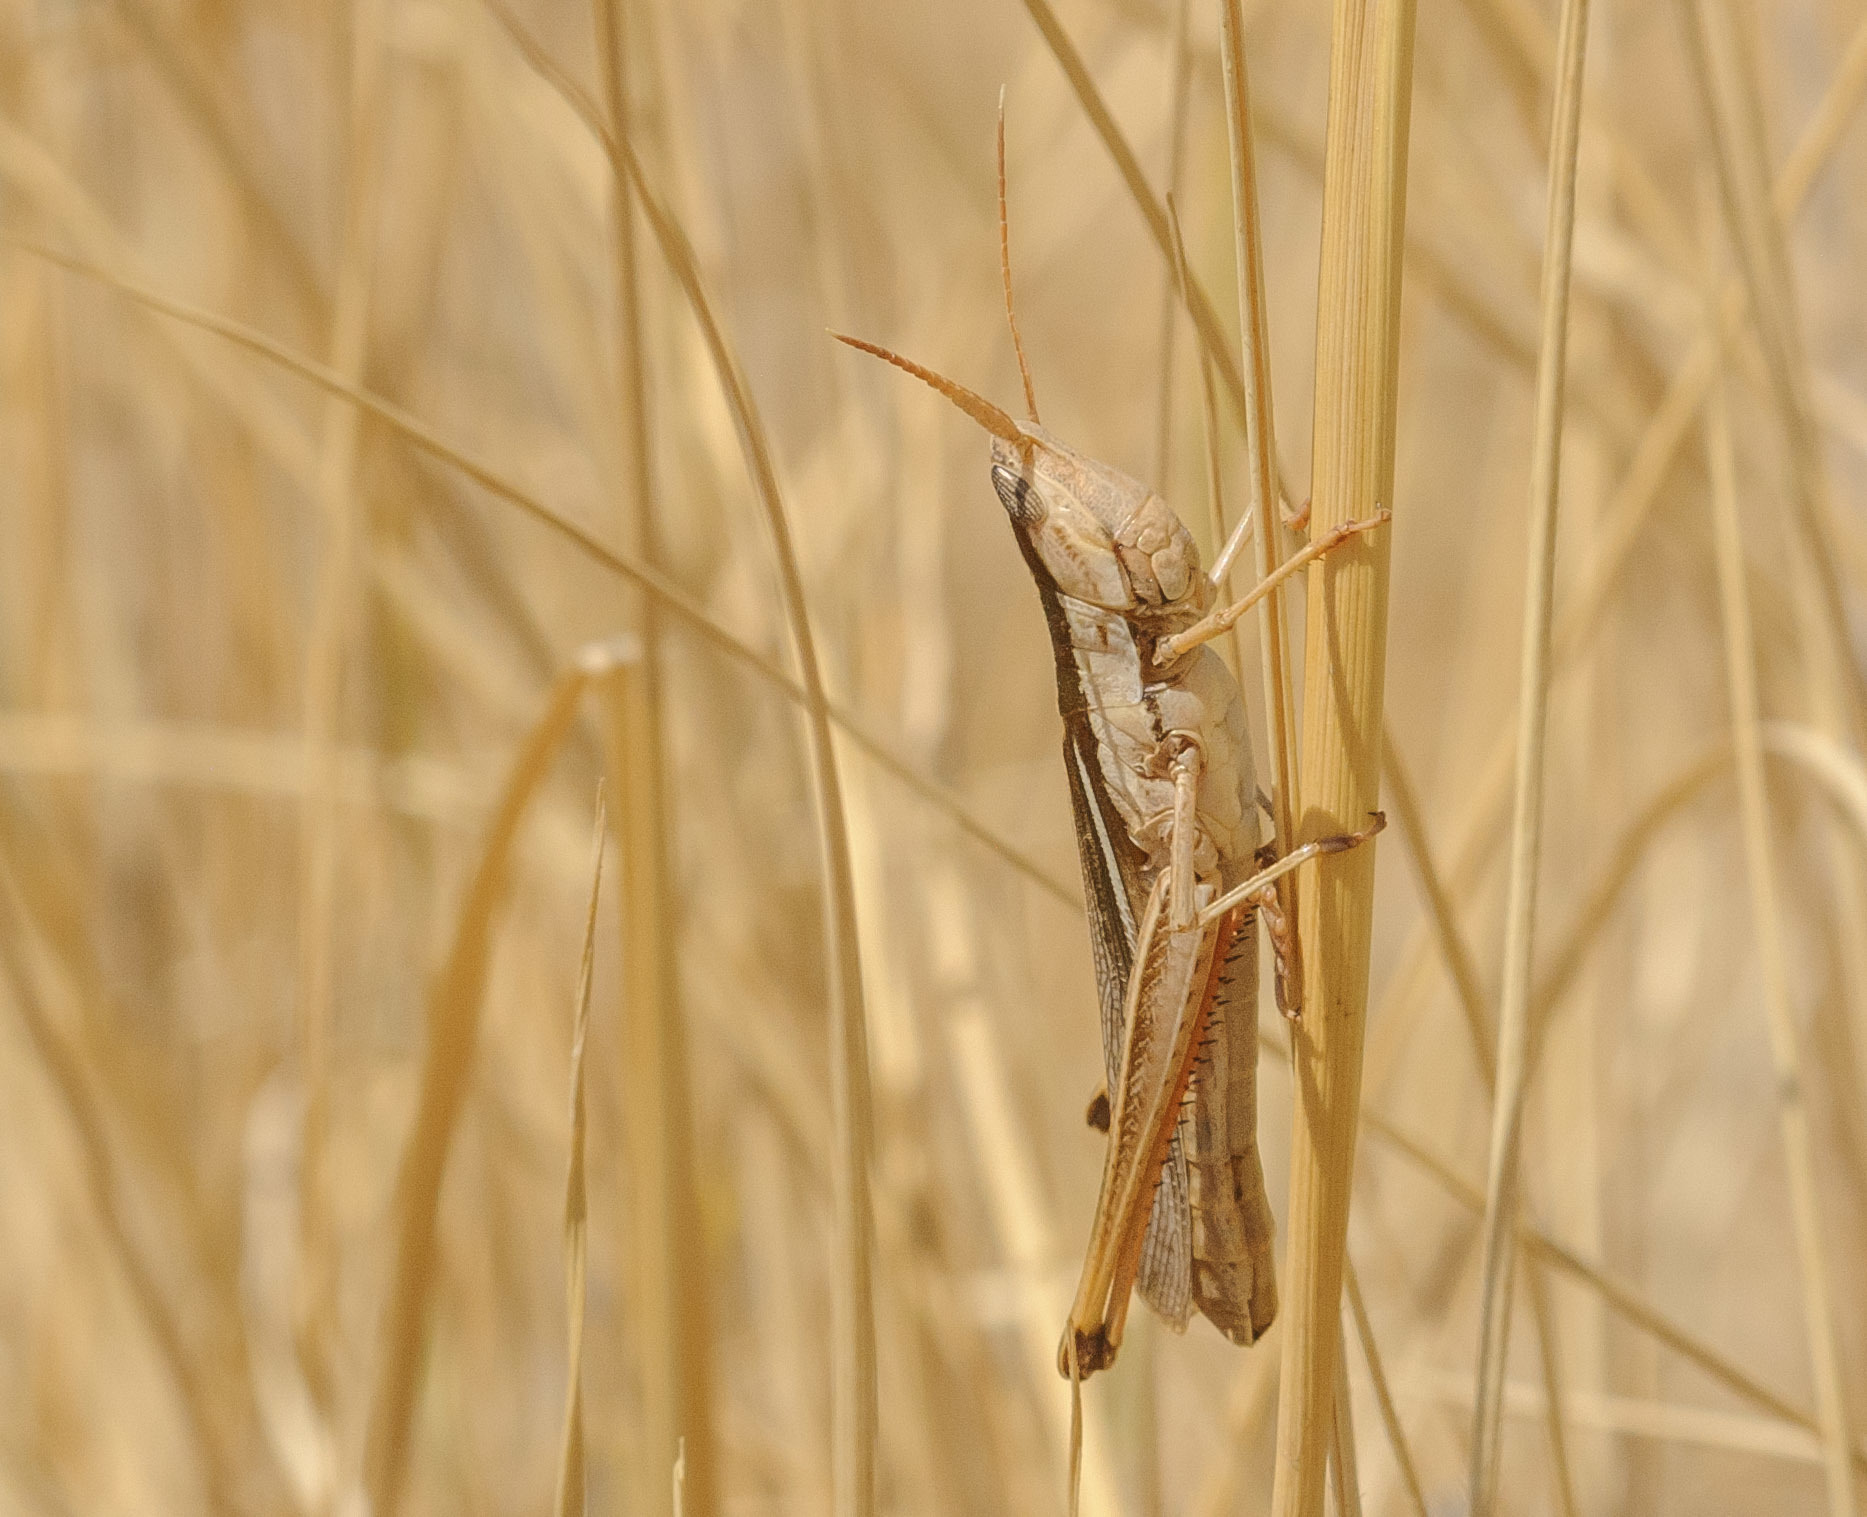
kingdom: Animalia
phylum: Arthropoda
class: Insecta
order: Orthoptera
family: Acrididae
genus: Mermiria
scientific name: Mermiria bivittata
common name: Two-striped mermiria grasshopper
